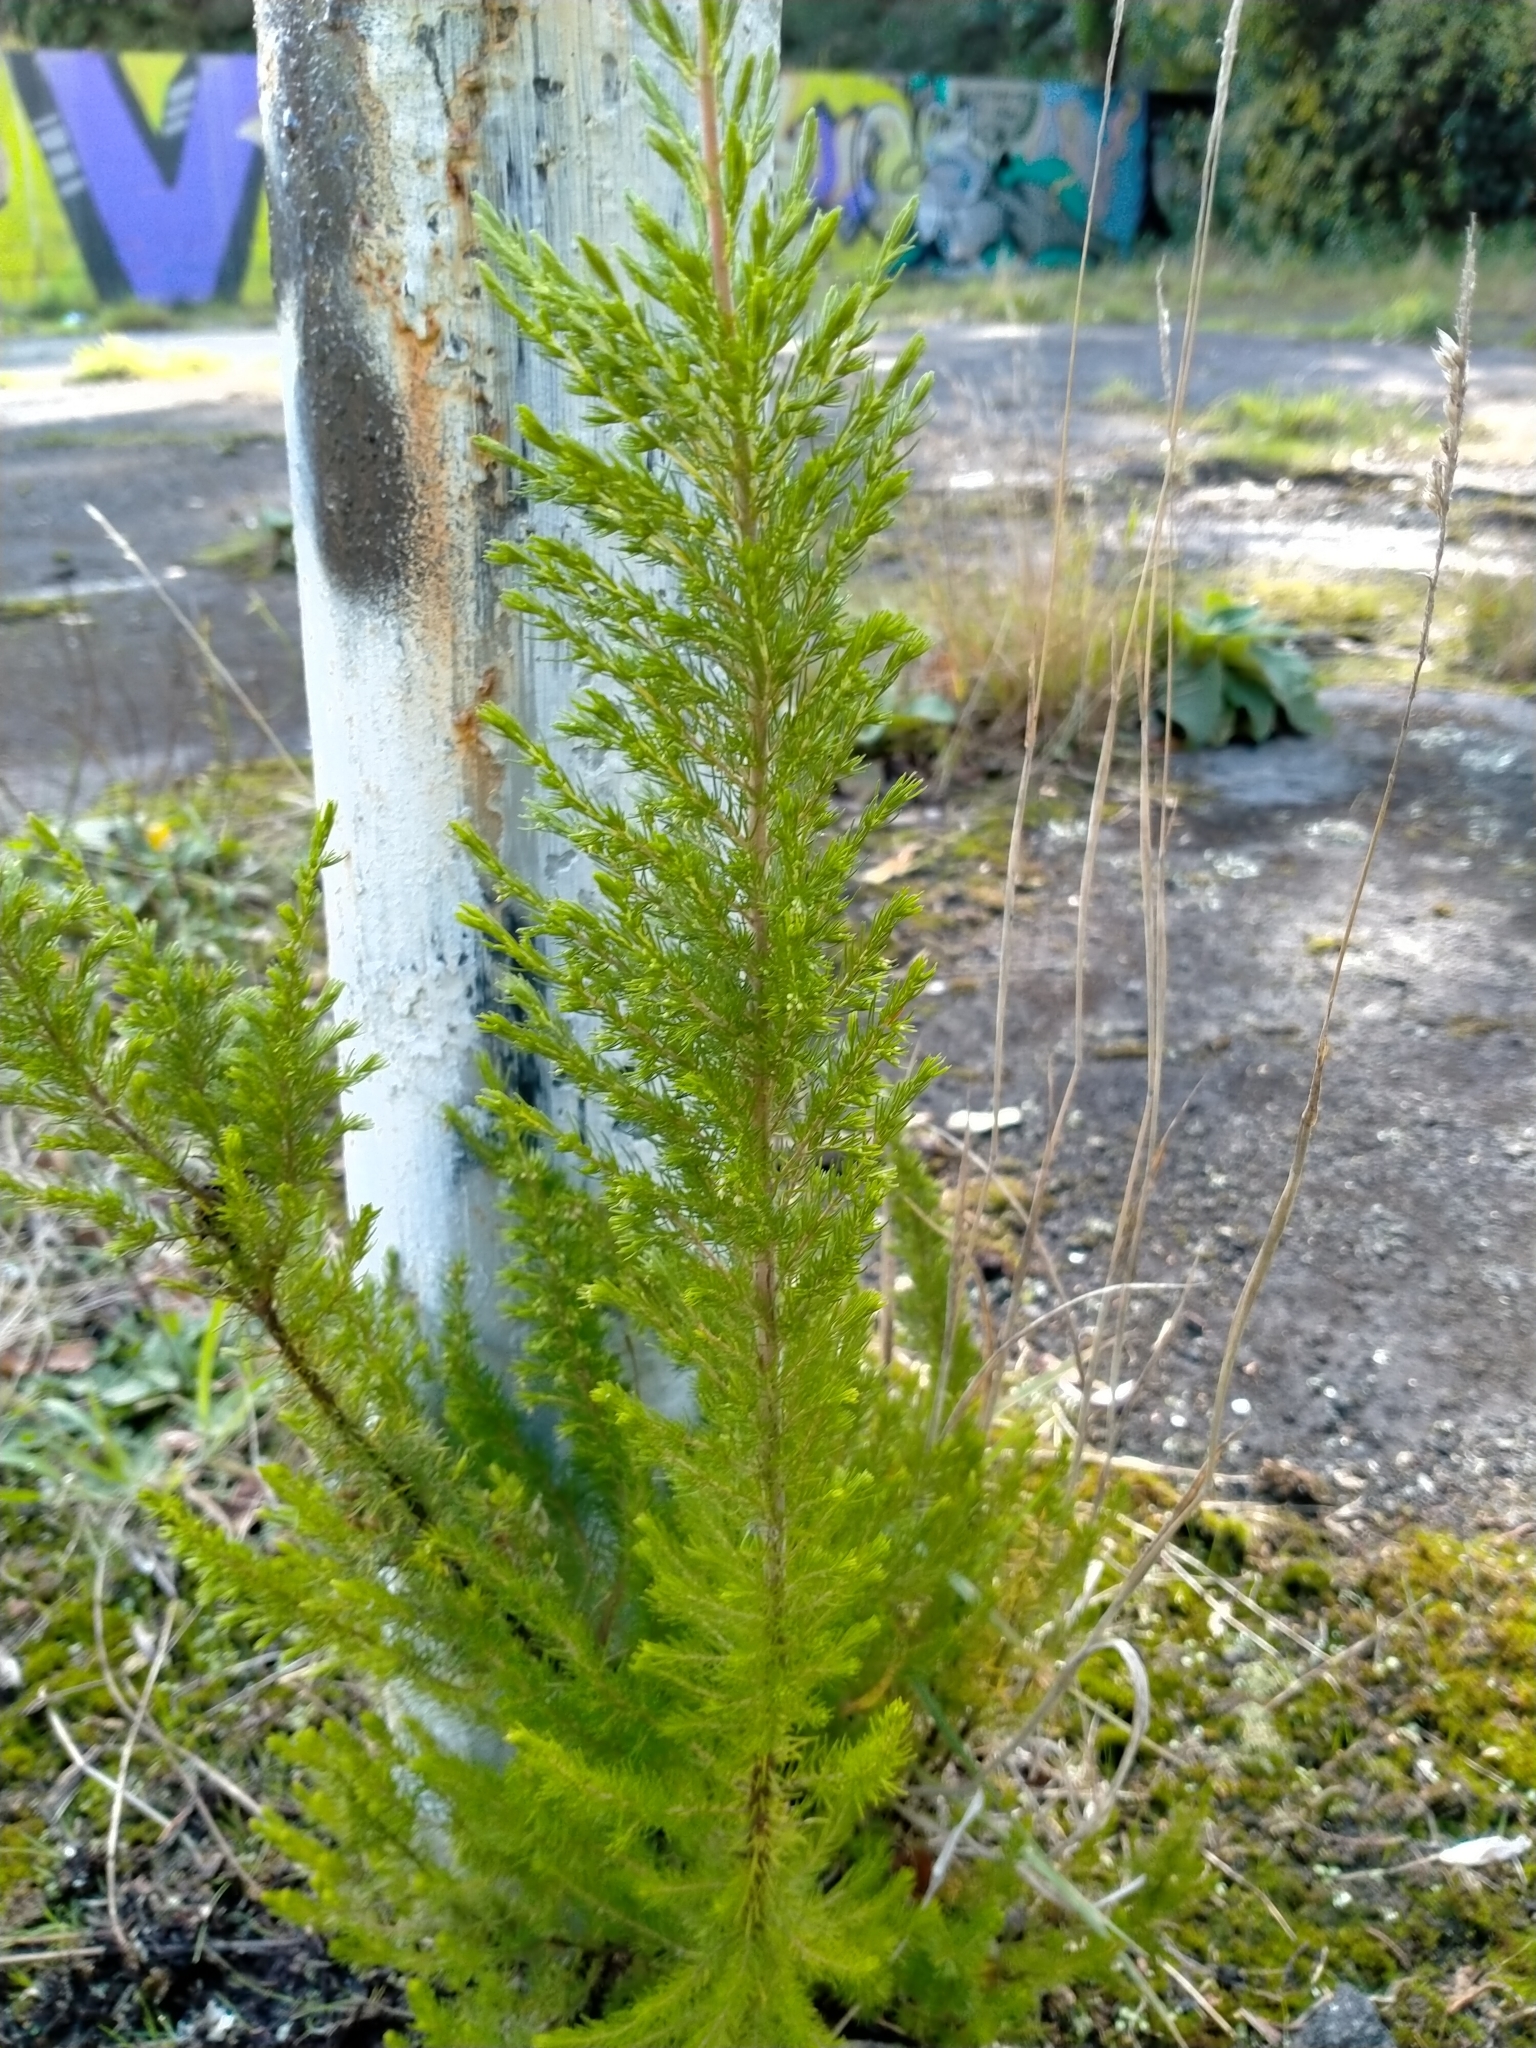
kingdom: Plantae
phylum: Tracheophyta
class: Magnoliopsida
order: Ericales
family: Ericaceae
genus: Erica
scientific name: Erica lusitanica
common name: Spanish heath
